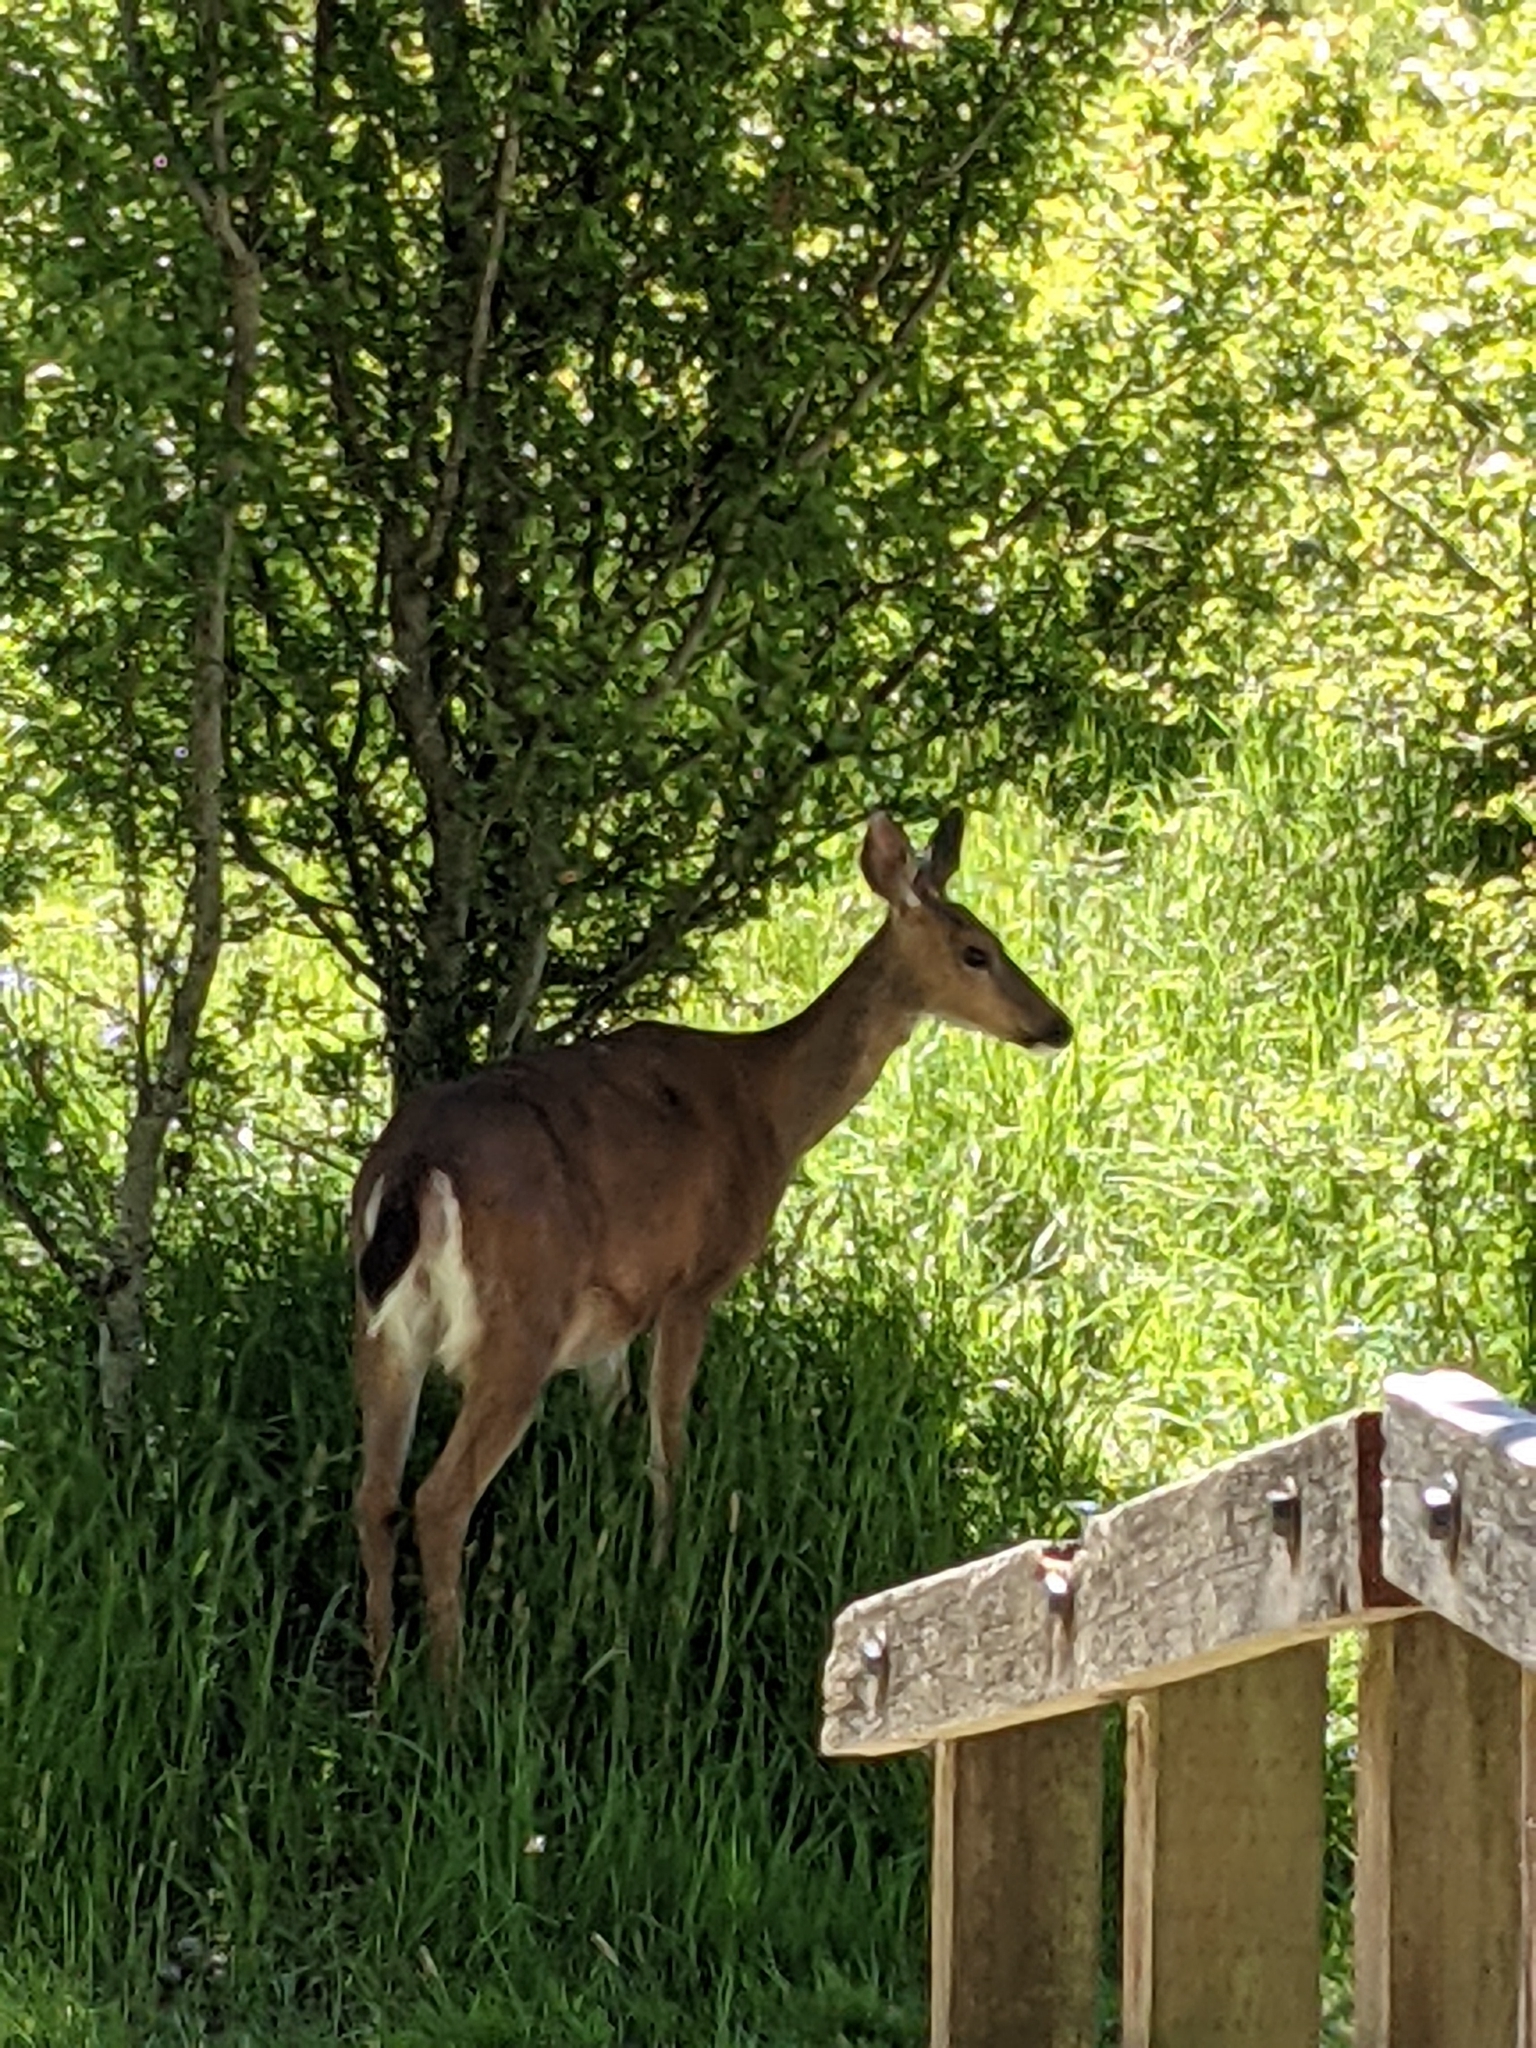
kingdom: Animalia
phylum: Chordata
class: Mammalia
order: Artiodactyla
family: Cervidae
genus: Odocoileus
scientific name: Odocoileus hemionus
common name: Mule deer
